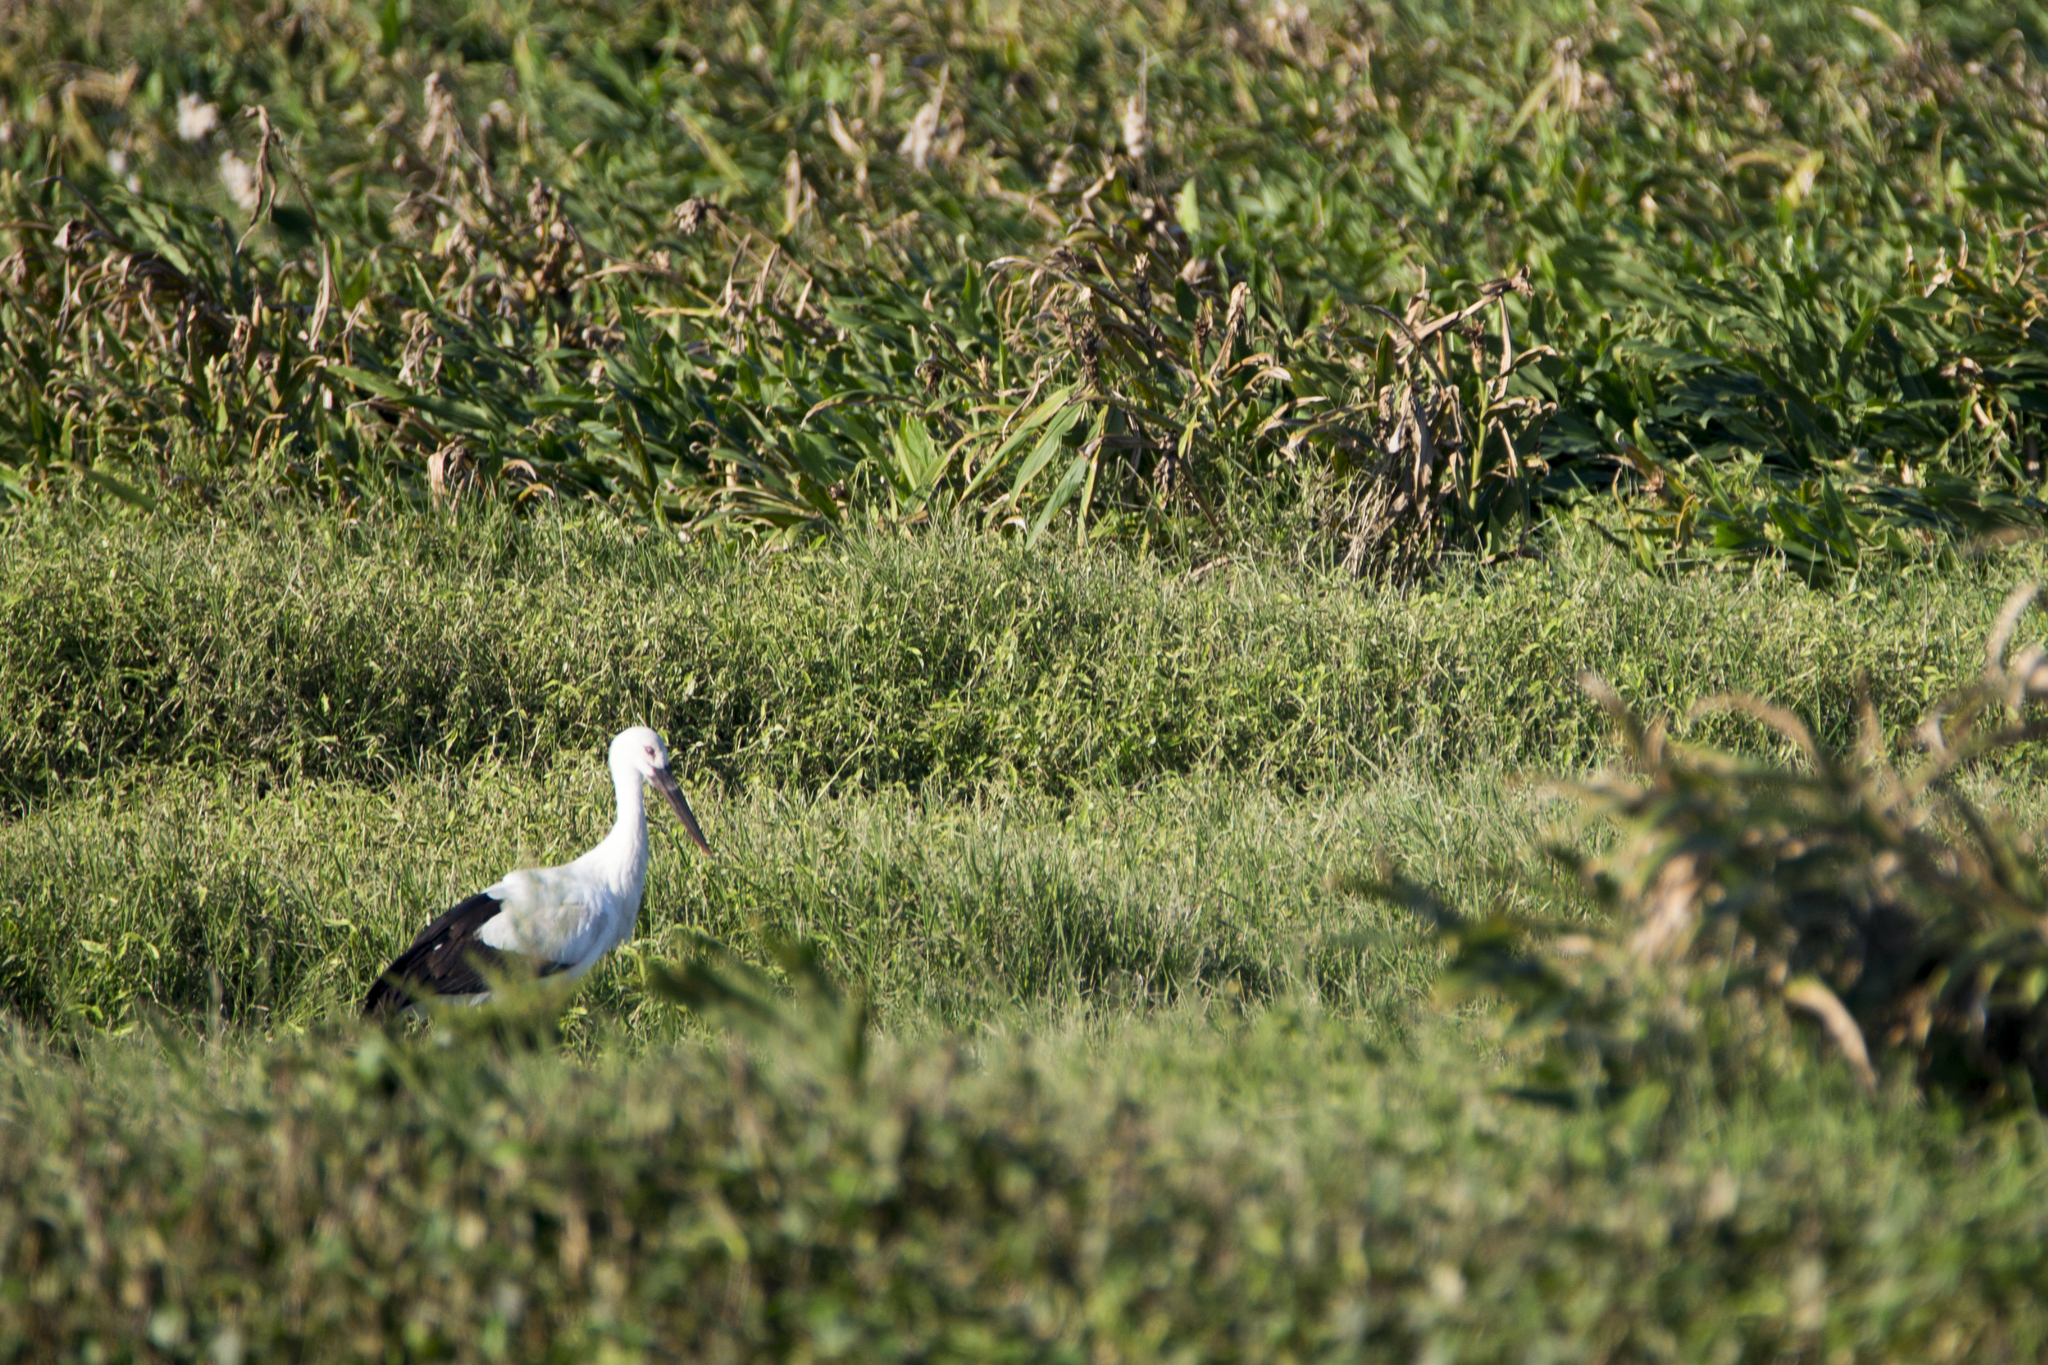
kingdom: Animalia
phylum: Chordata
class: Aves
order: Ciconiiformes
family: Ciconiidae
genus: Ciconia
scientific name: Ciconia boyciana
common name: Oriental stork
